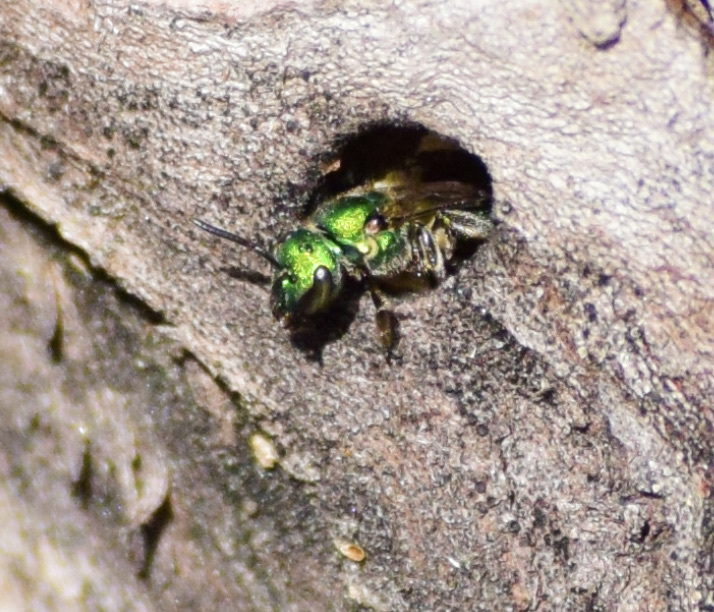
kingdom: Animalia
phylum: Arthropoda
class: Insecta
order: Hymenoptera
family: Halictidae
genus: Augochlora
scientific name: Augochlora pura
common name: Pure green sweat bee
